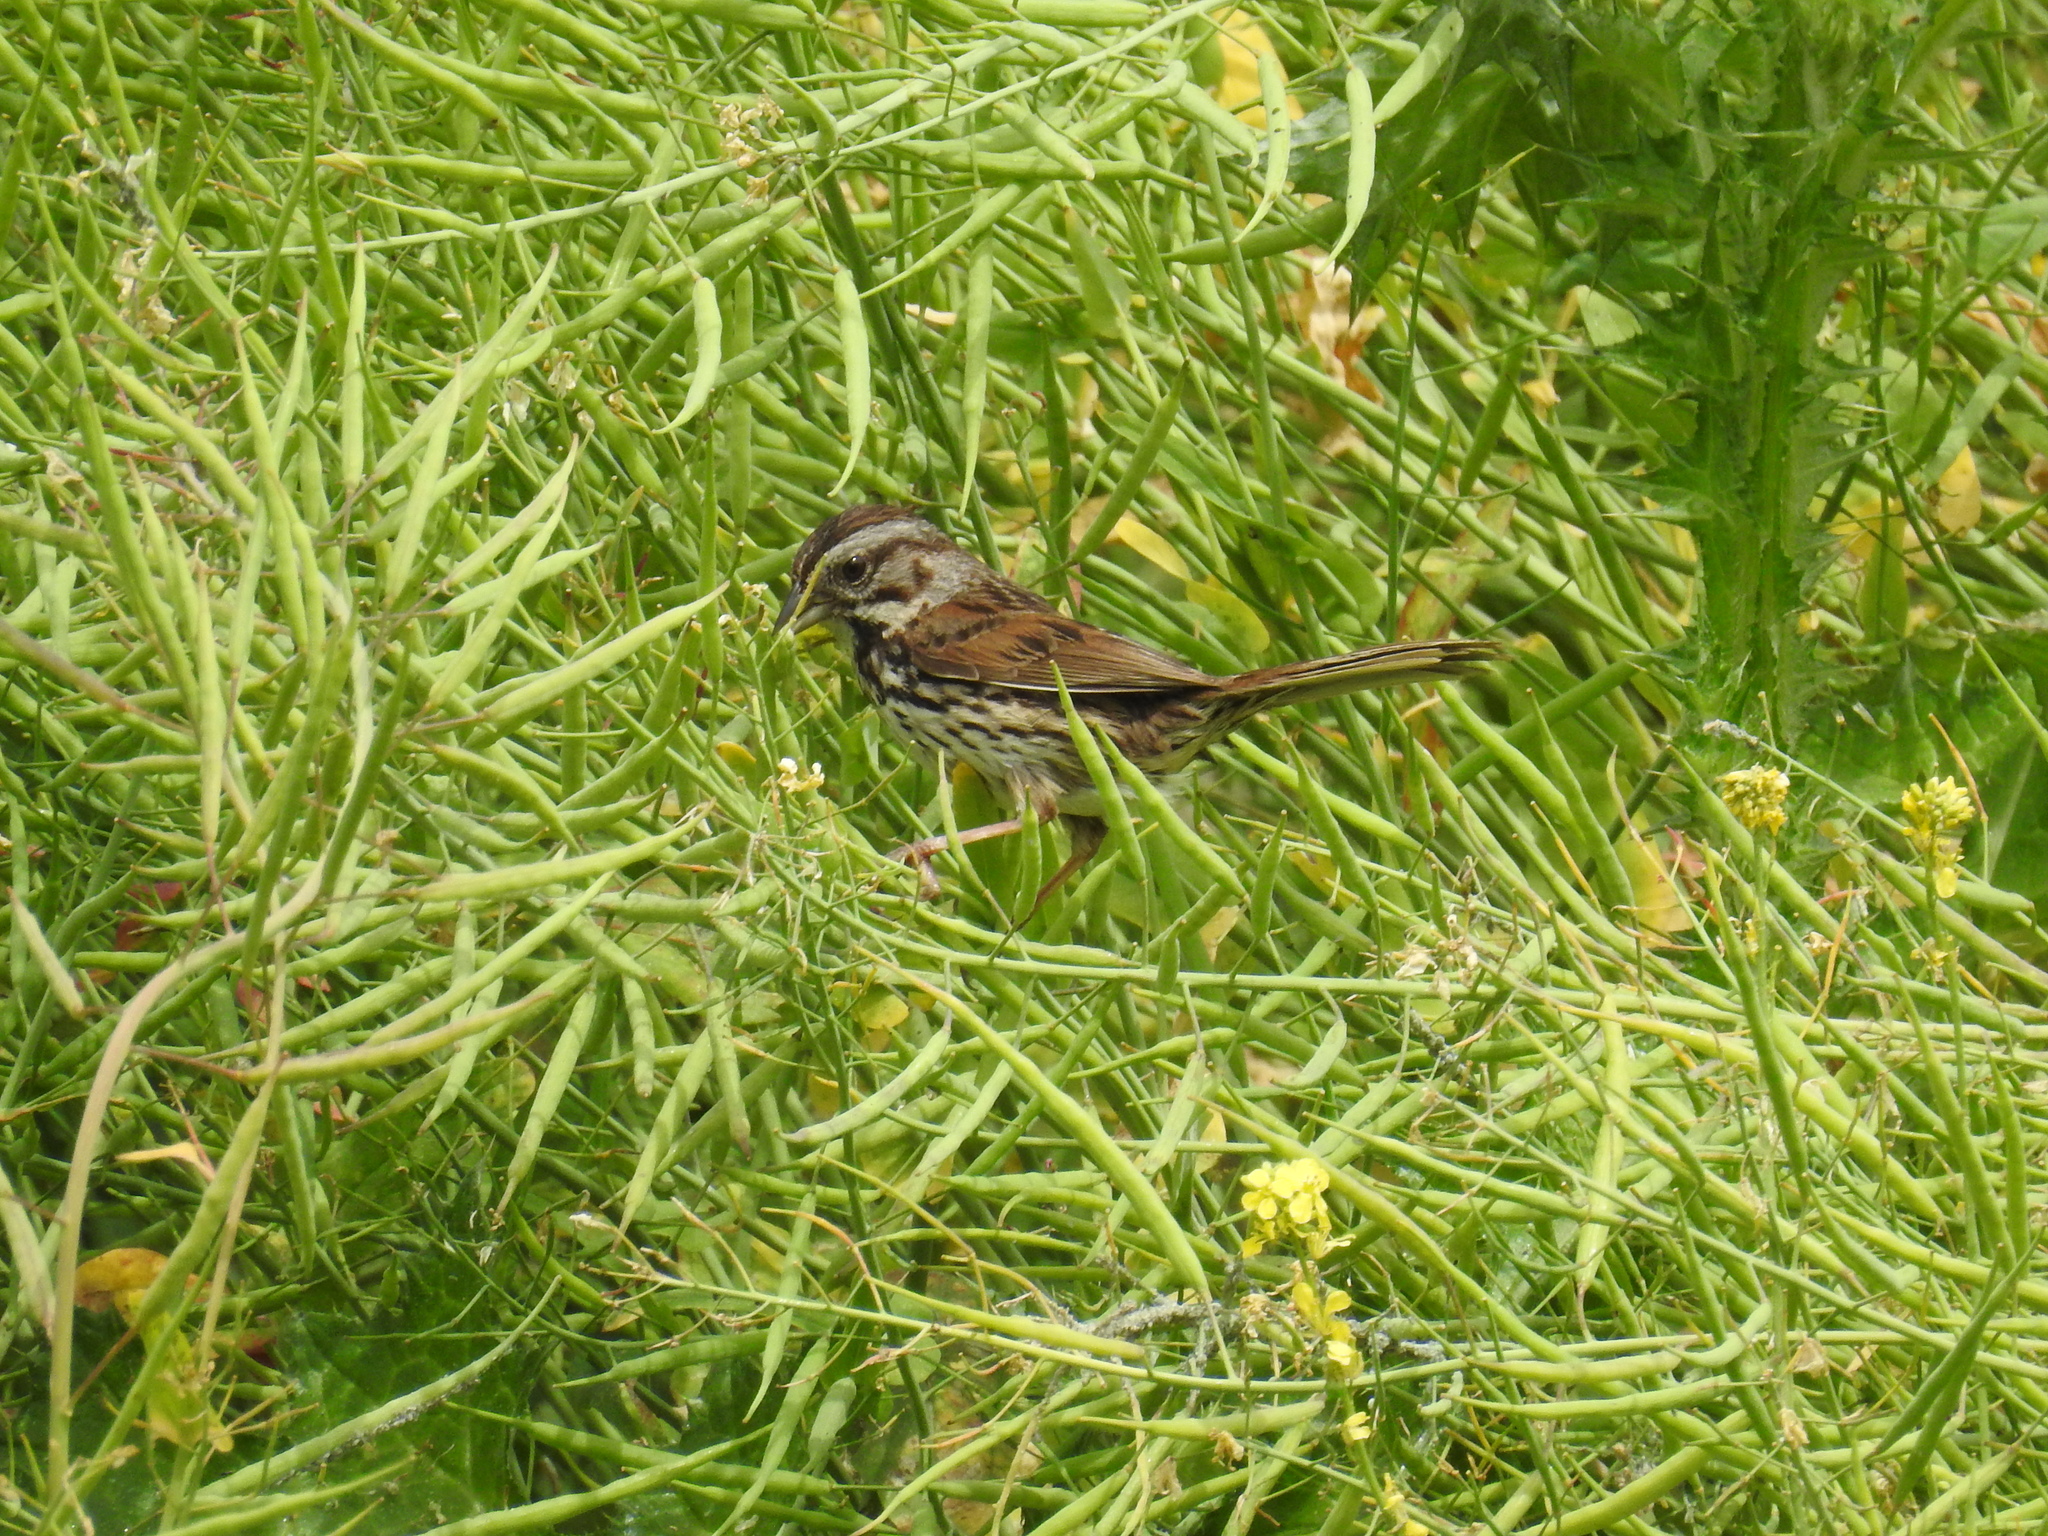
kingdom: Animalia
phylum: Chordata
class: Aves
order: Passeriformes
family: Passerellidae
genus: Melospiza
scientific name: Melospiza melodia
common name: Song sparrow
